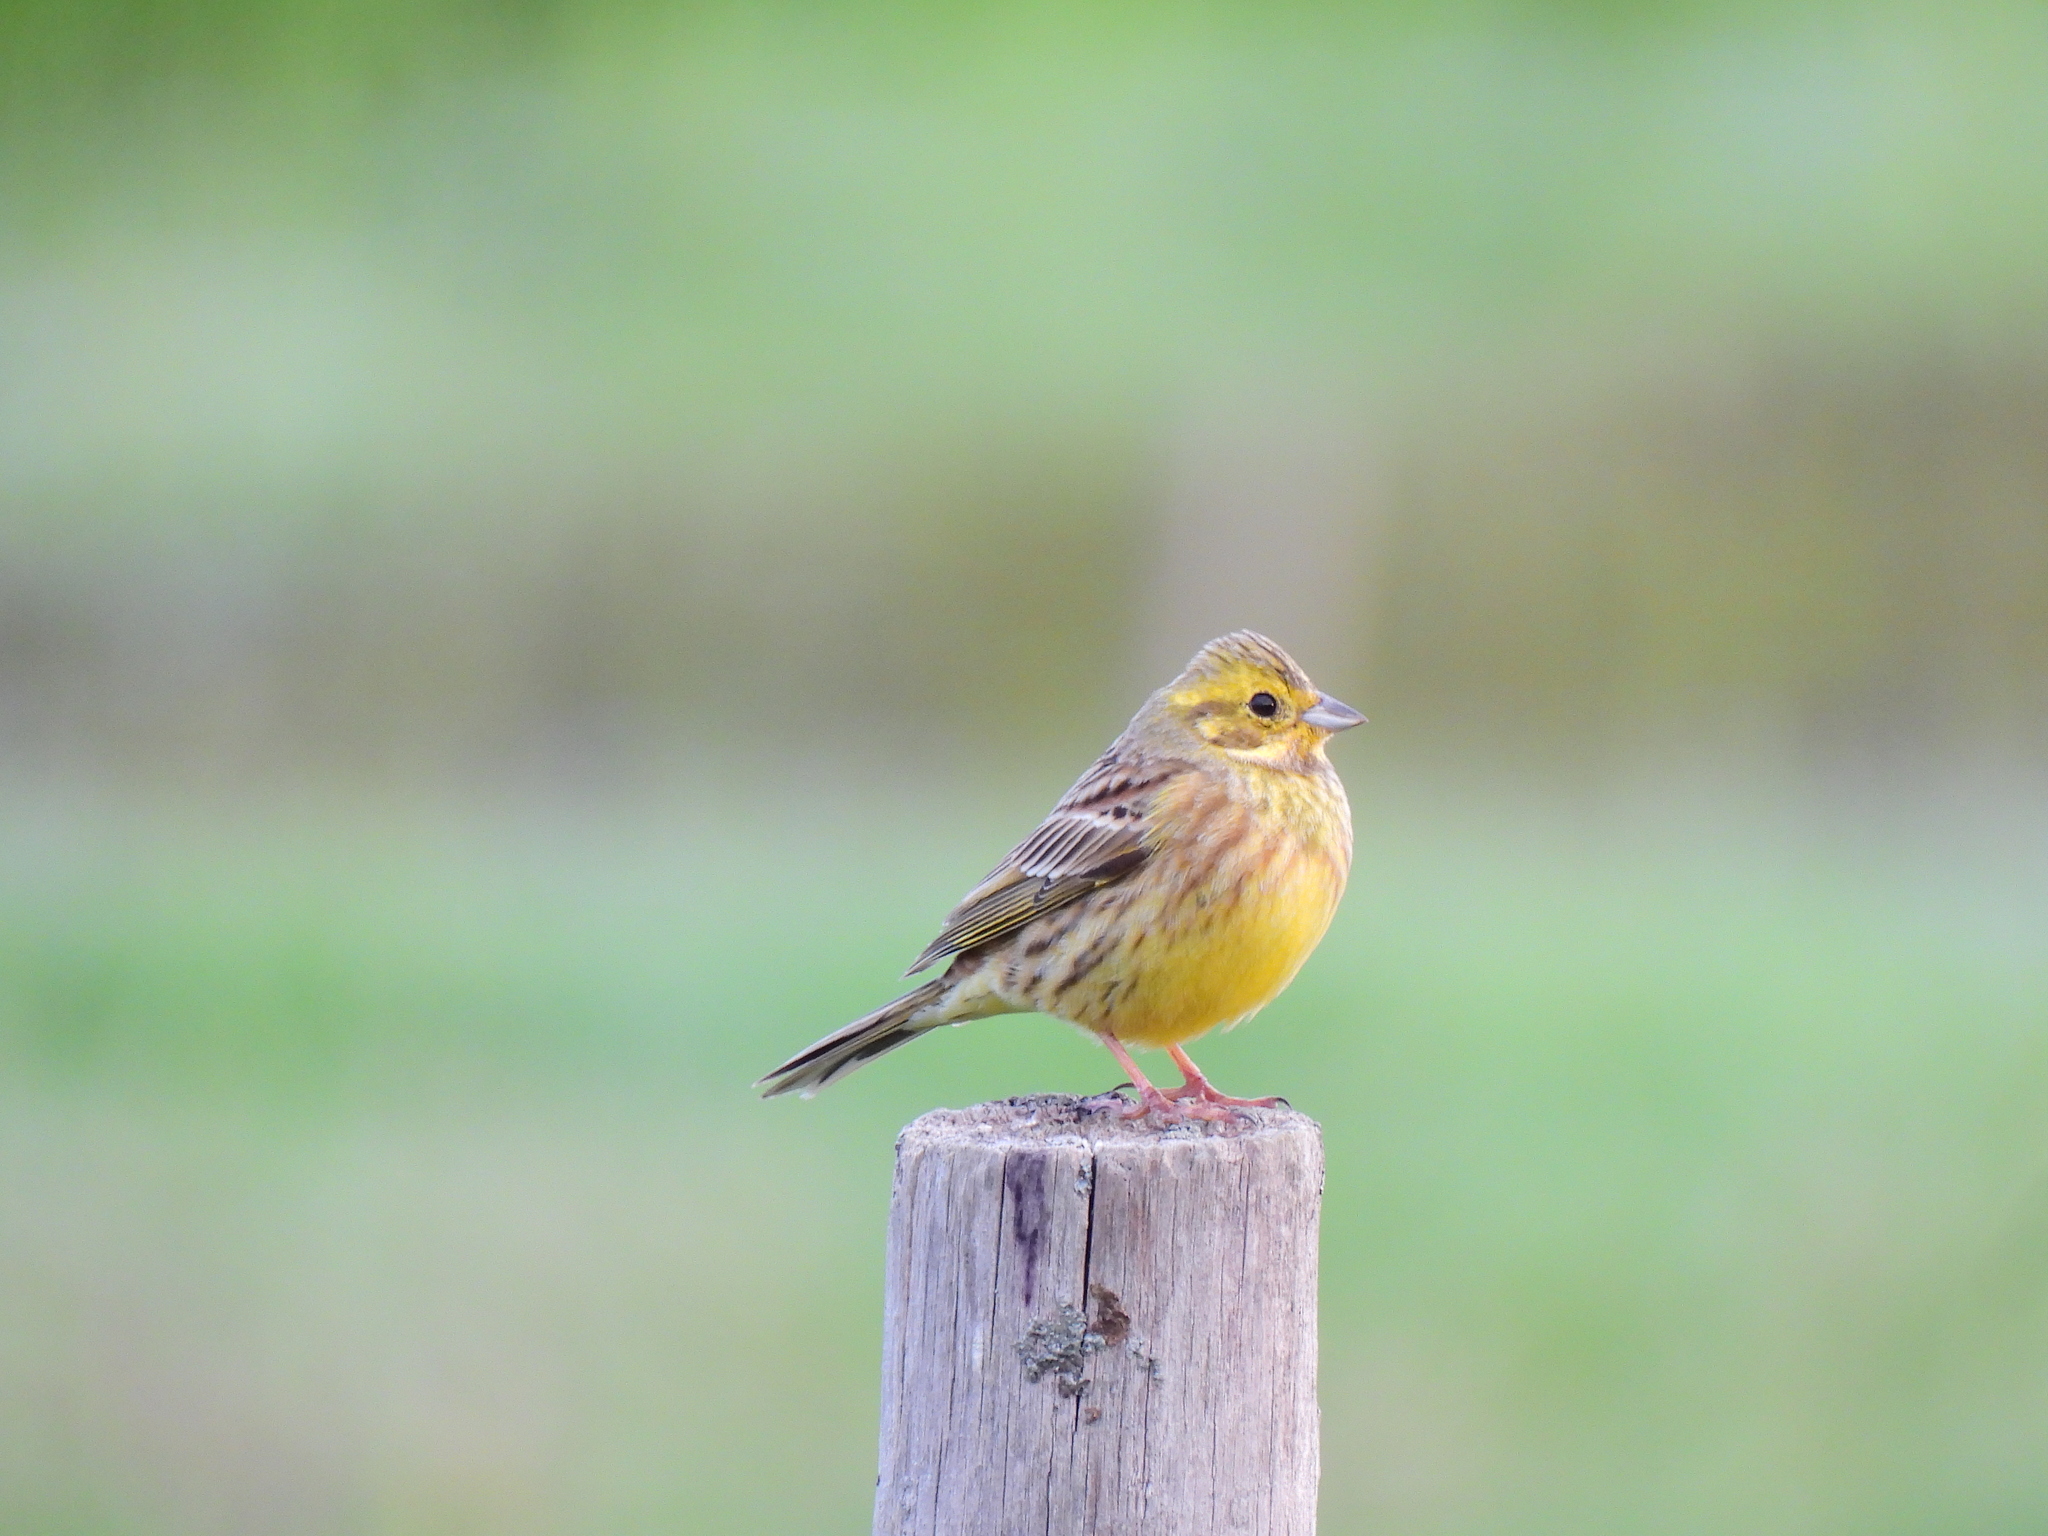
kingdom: Animalia
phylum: Chordata
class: Aves
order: Passeriformes
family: Emberizidae
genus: Emberiza
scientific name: Emberiza citrinella
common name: Yellowhammer
